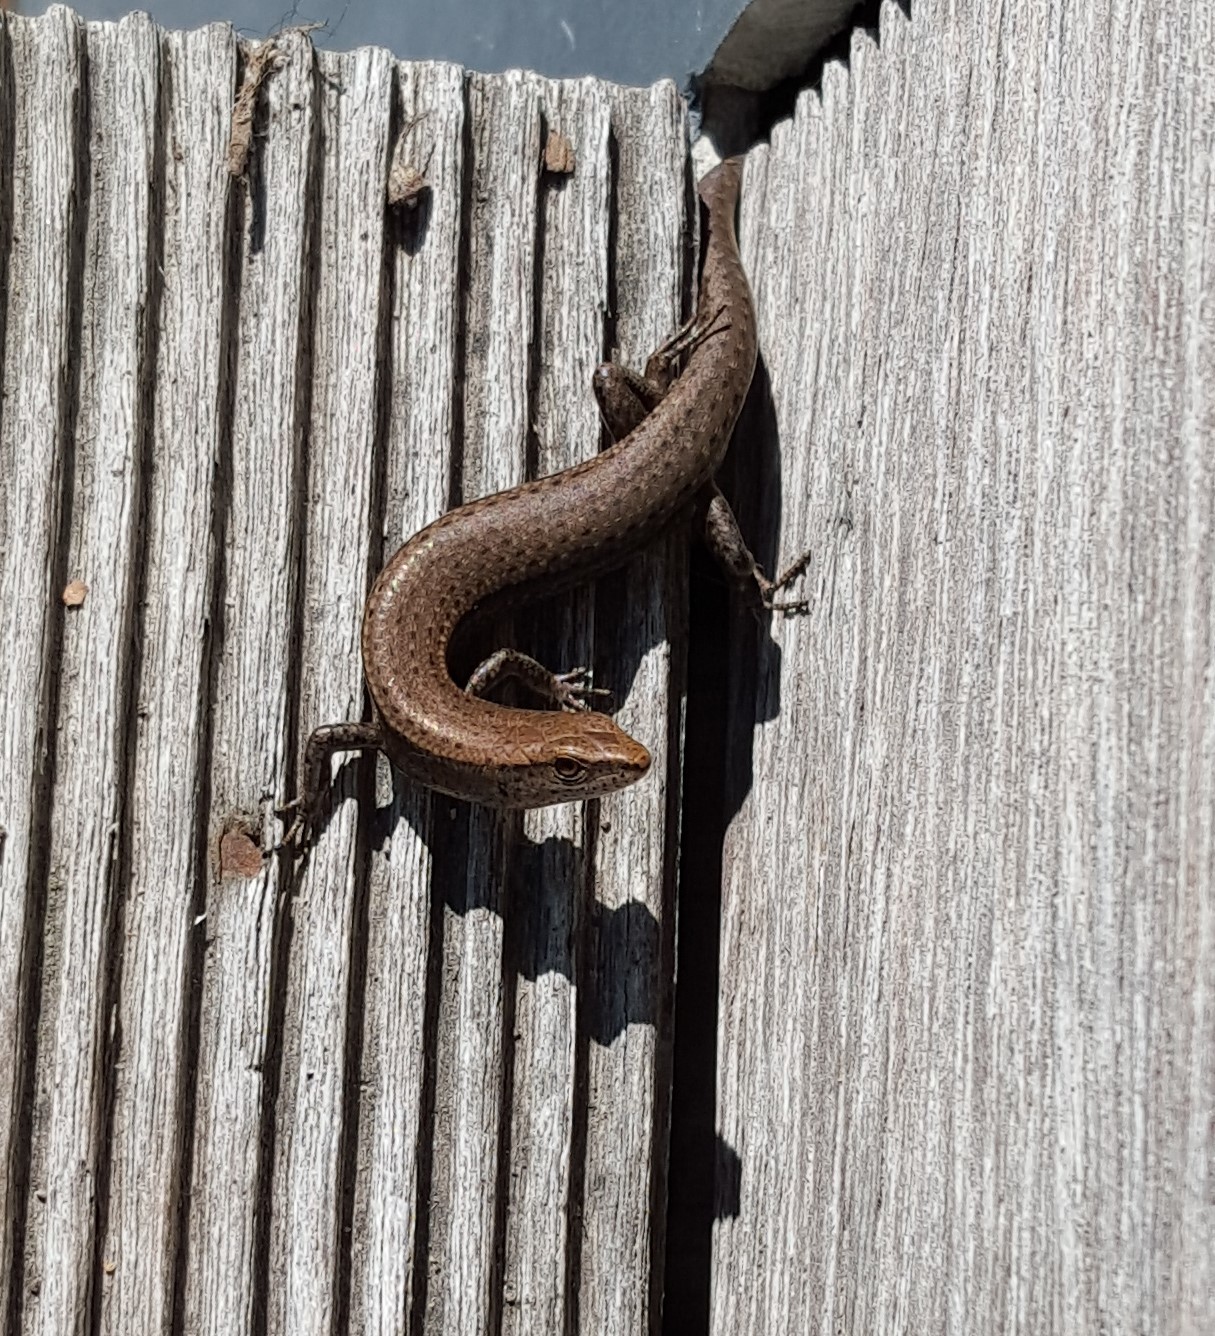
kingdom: Animalia
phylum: Chordata
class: Squamata
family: Scincidae
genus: Lampropholis
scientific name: Lampropholis delicata
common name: Plague skink
